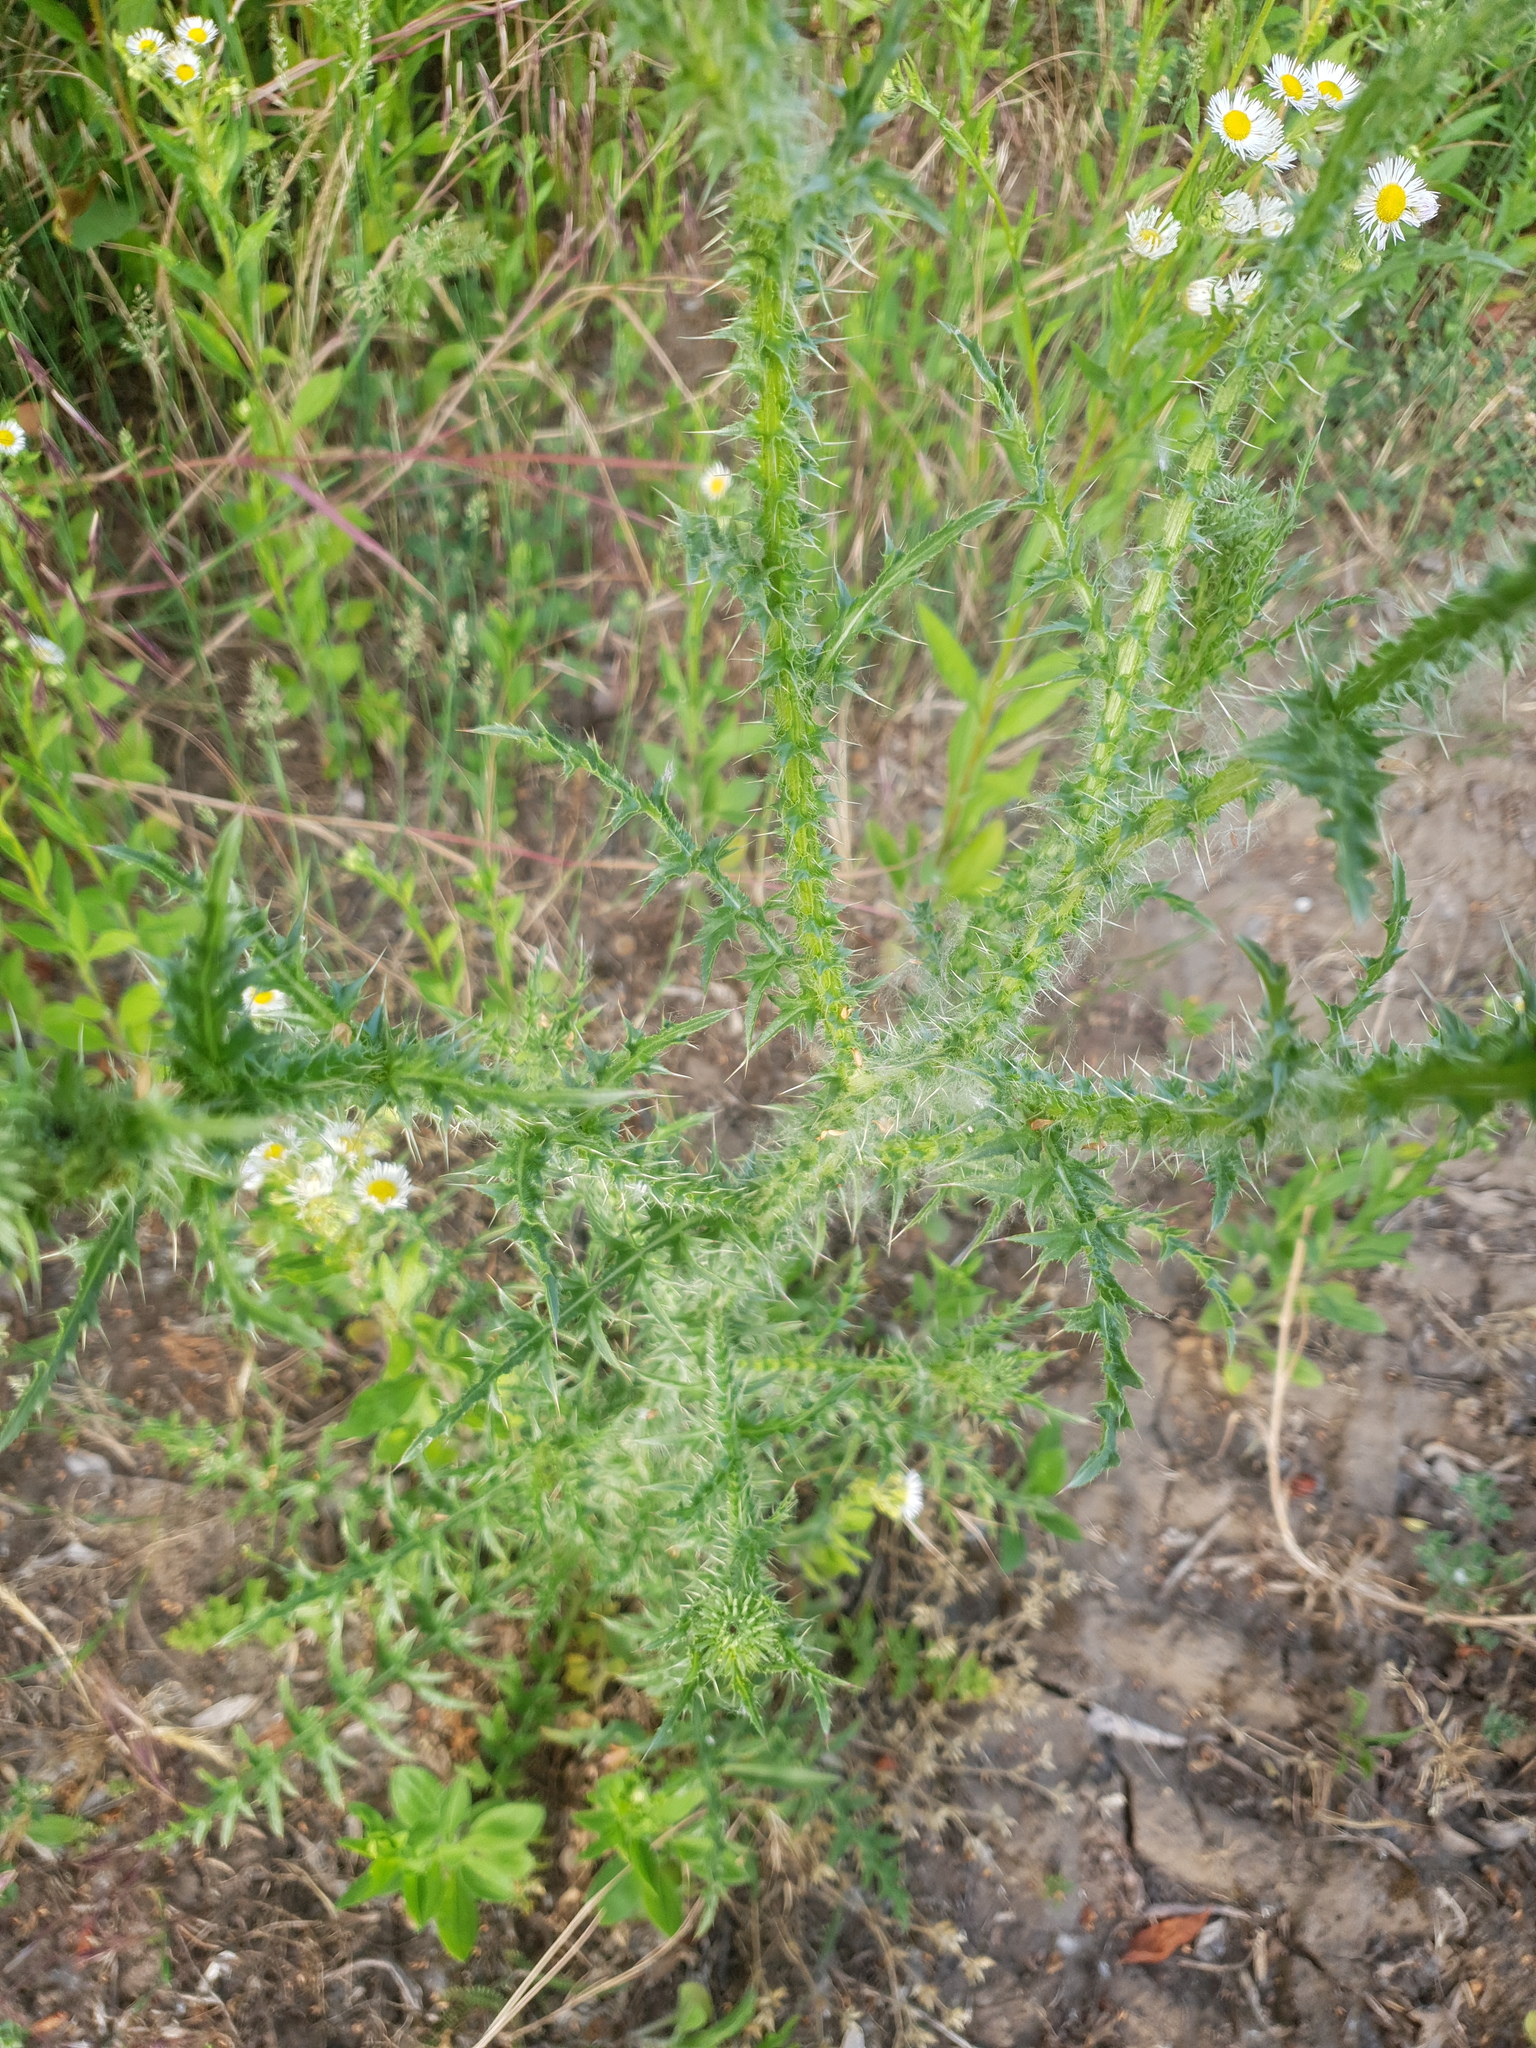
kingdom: Plantae
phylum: Tracheophyta
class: Magnoliopsida
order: Asterales
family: Asteraceae
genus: Carduus
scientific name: Carduus acanthoides
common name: Plumeless thistle
